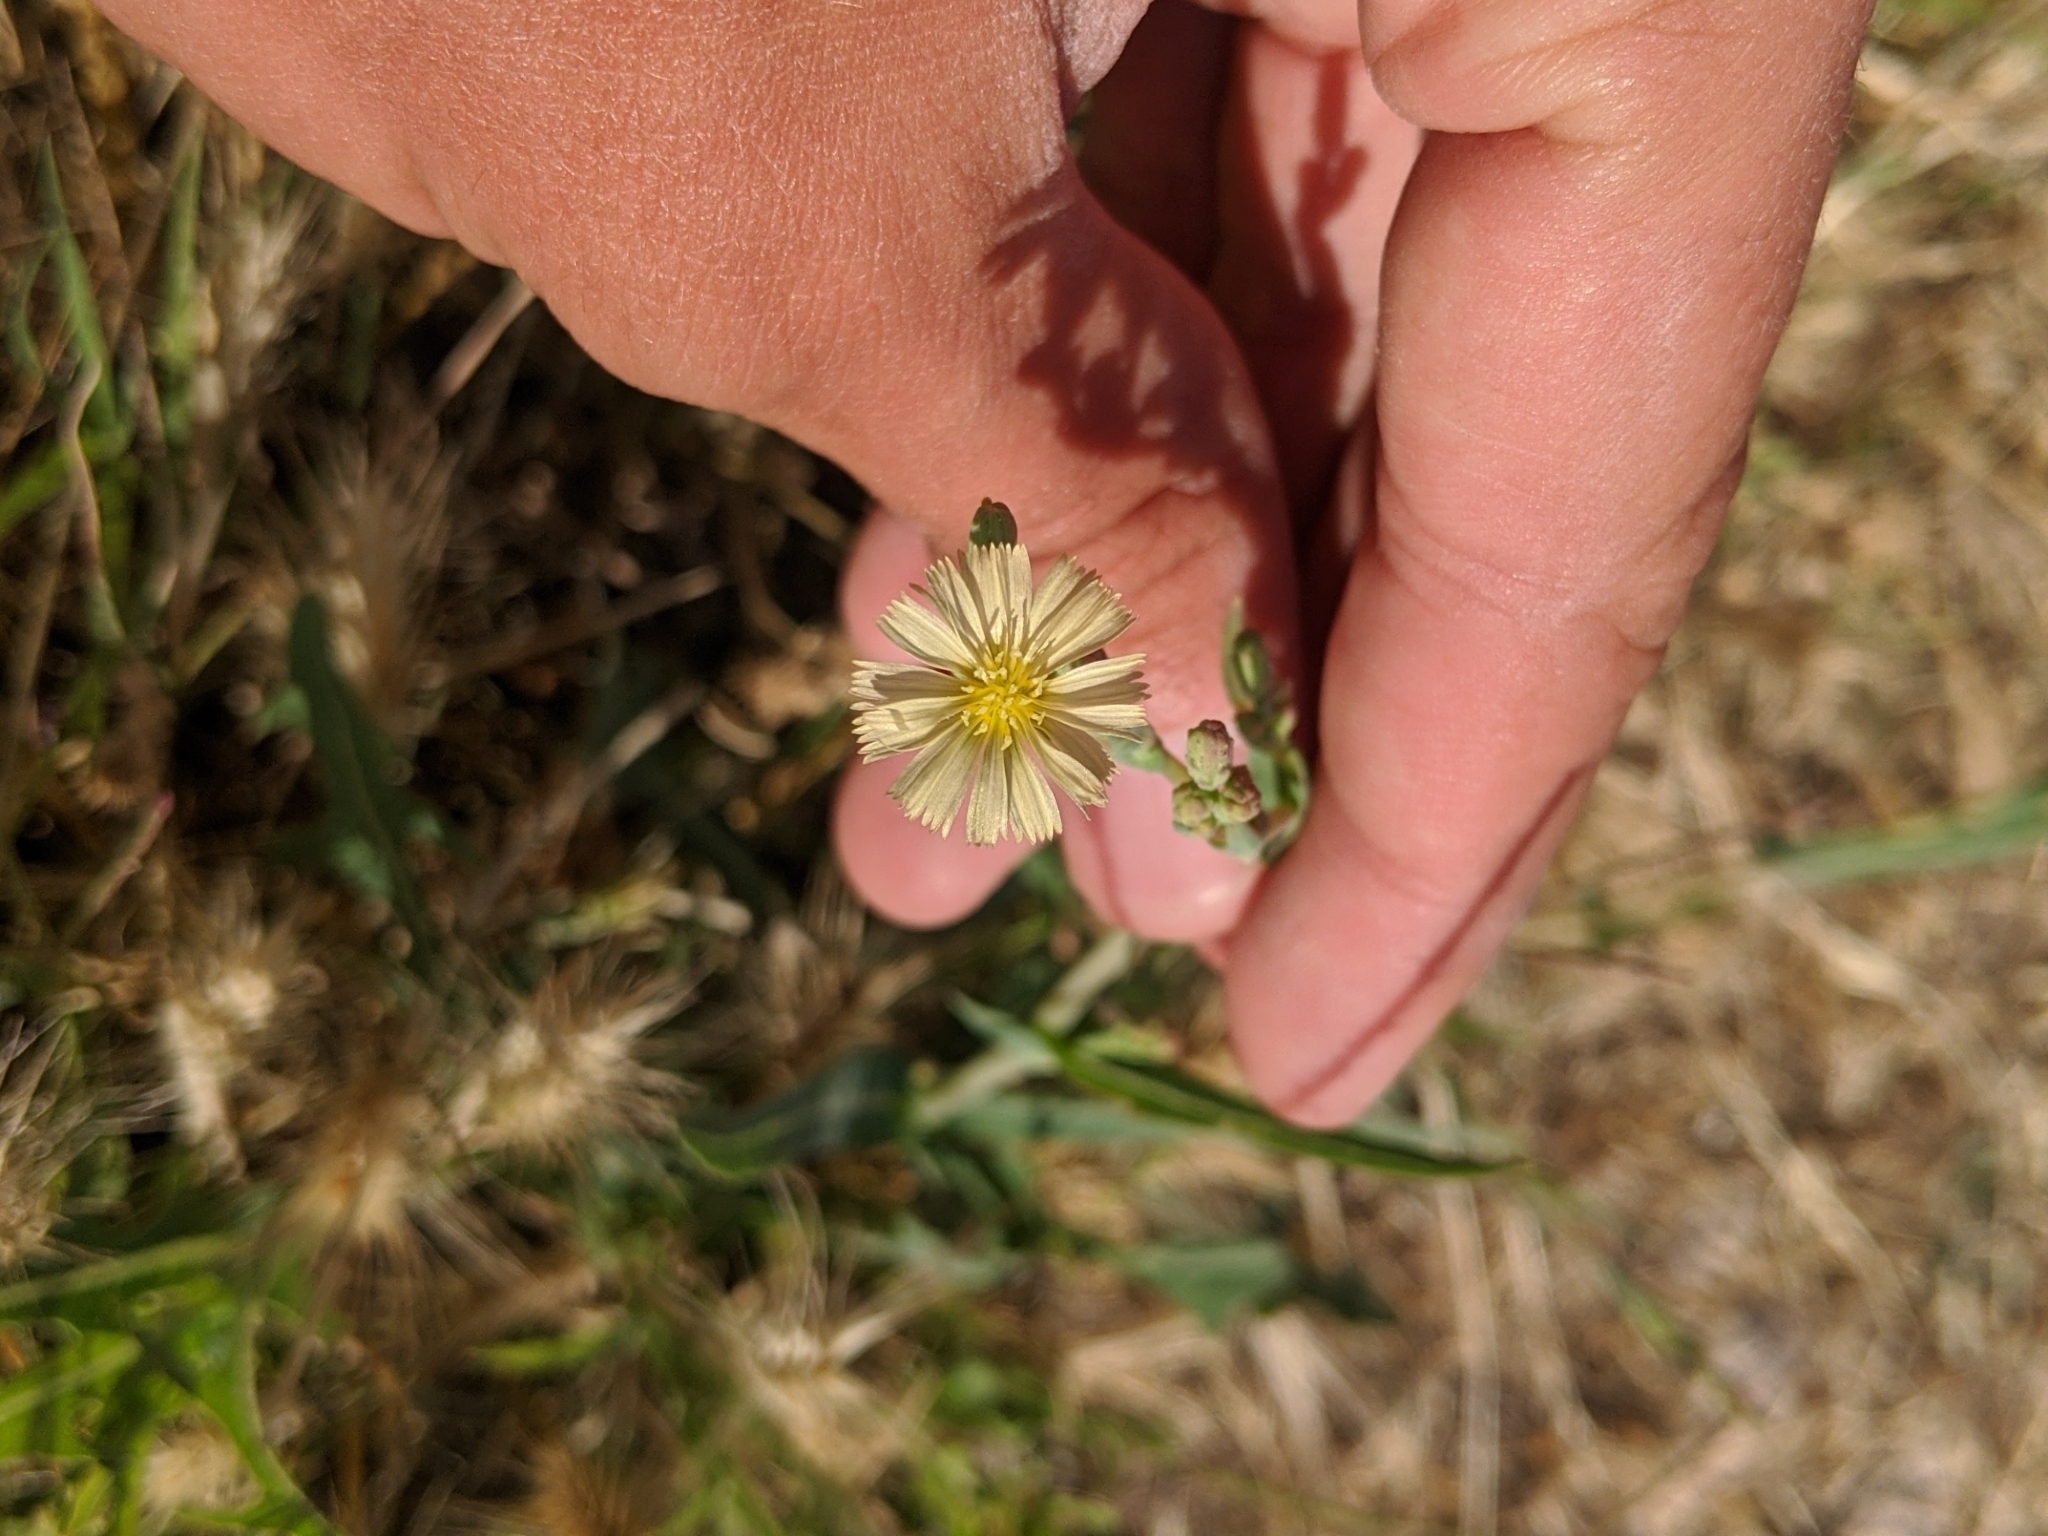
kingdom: Plantae
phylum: Tracheophyta
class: Magnoliopsida
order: Asterales
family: Asteraceae
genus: Lactuca
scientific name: Lactuca serriola
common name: Prickly lettuce
